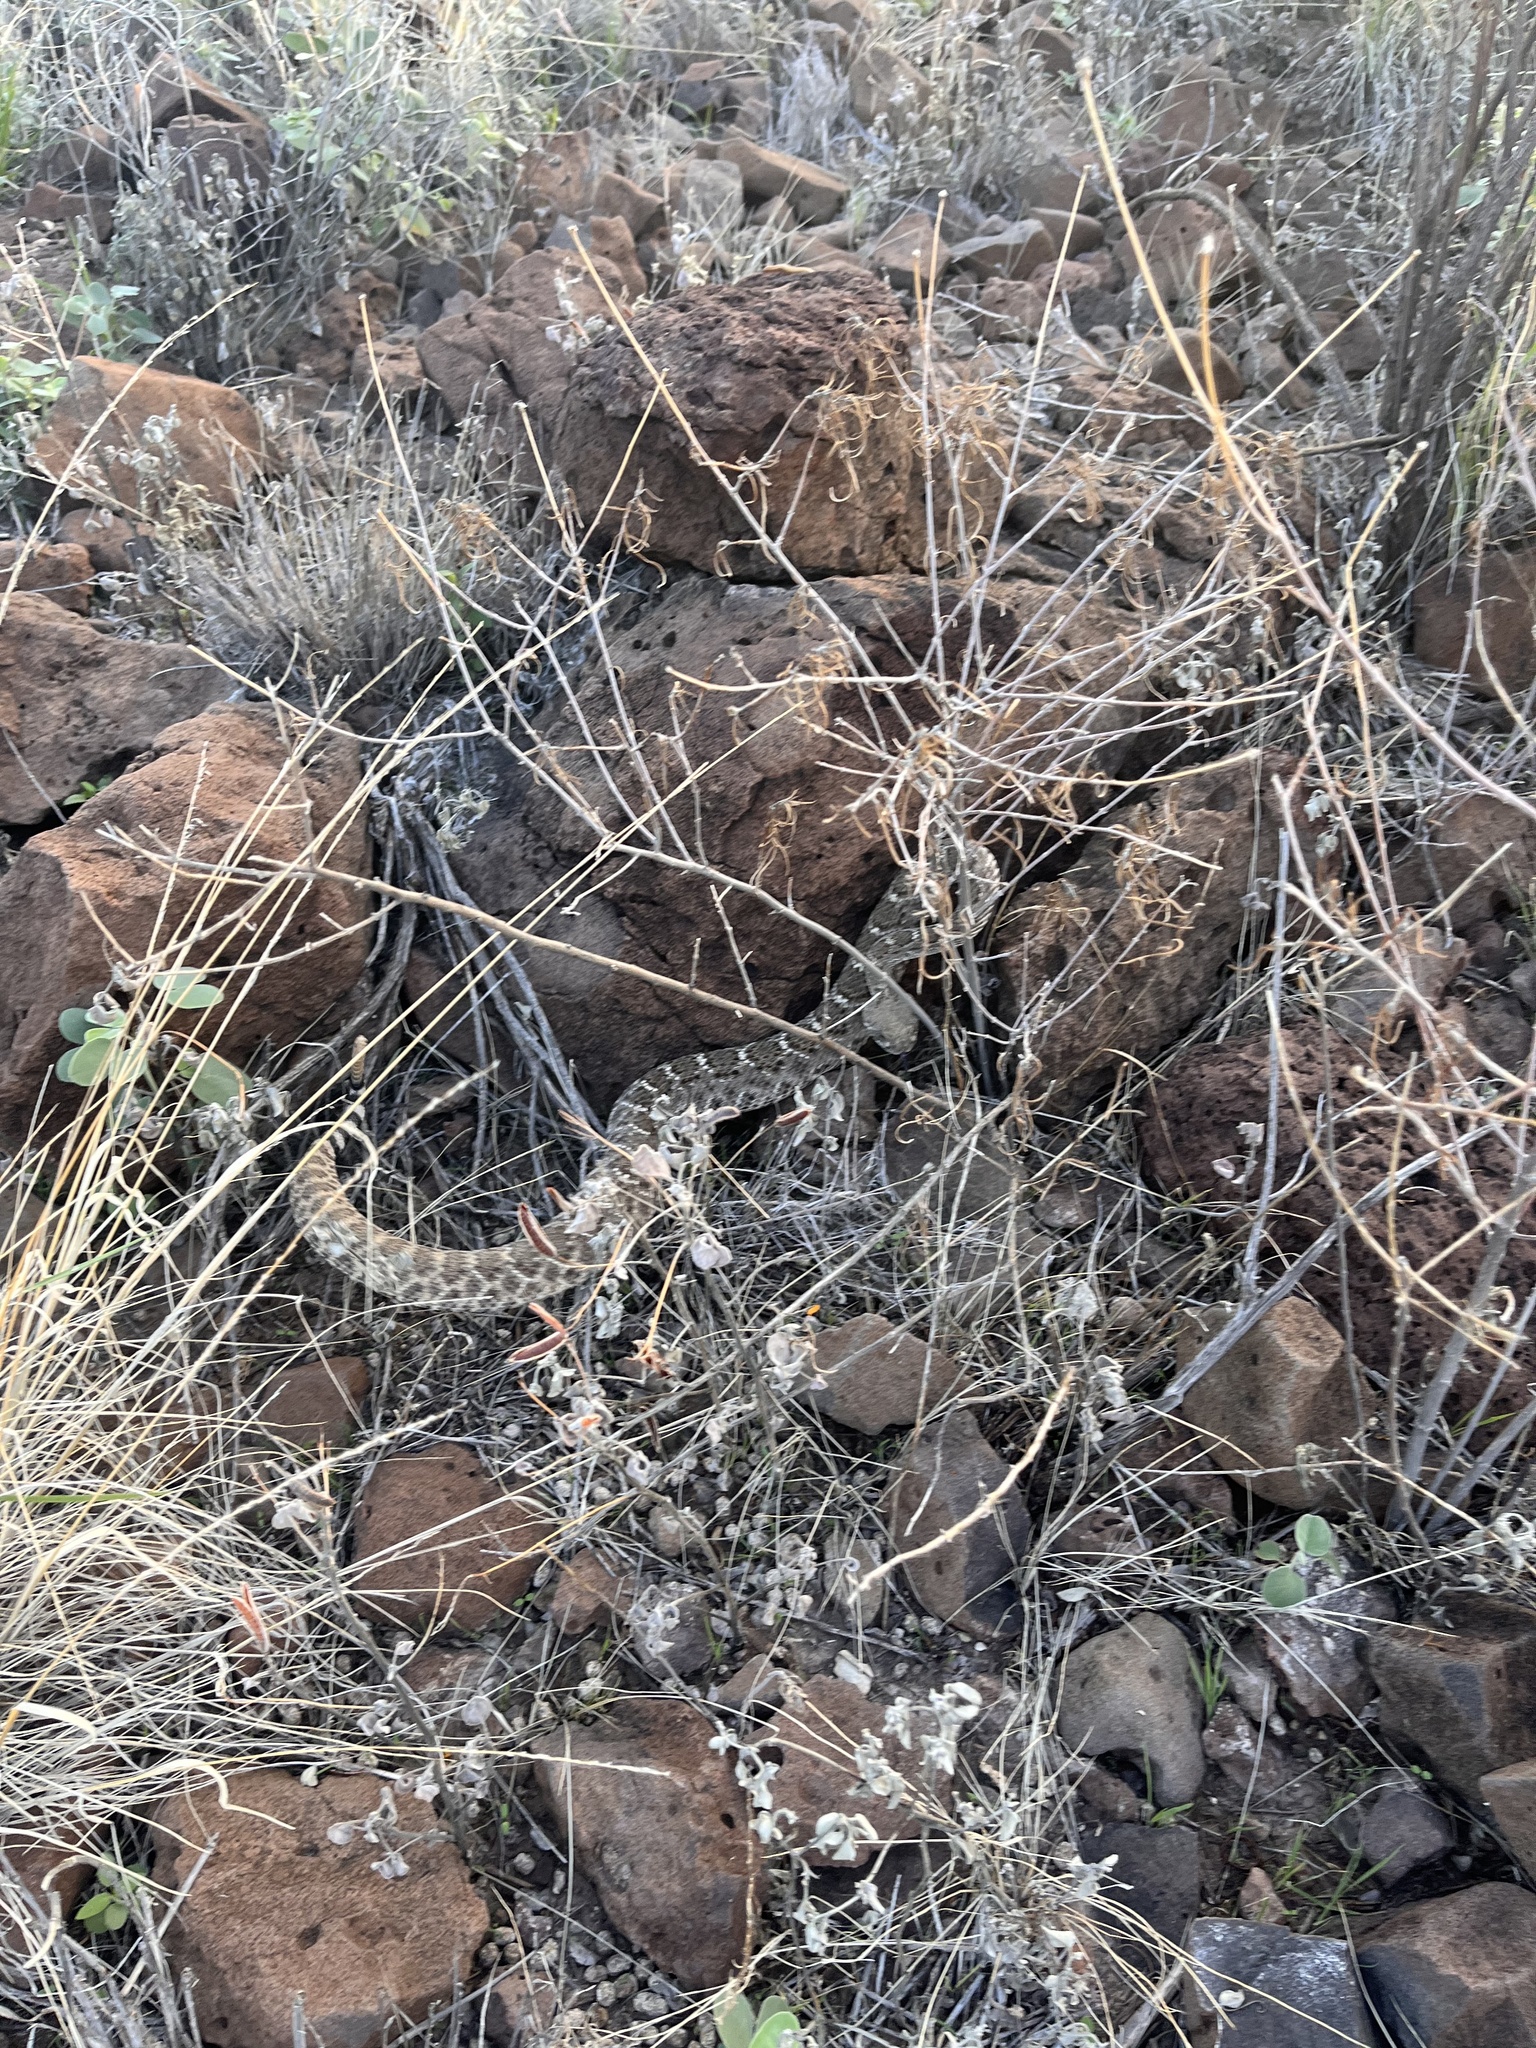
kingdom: Animalia
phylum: Chordata
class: Squamata
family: Viperidae
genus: Crotalus
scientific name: Crotalus atrox
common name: Western diamond-backed rattlesnake
